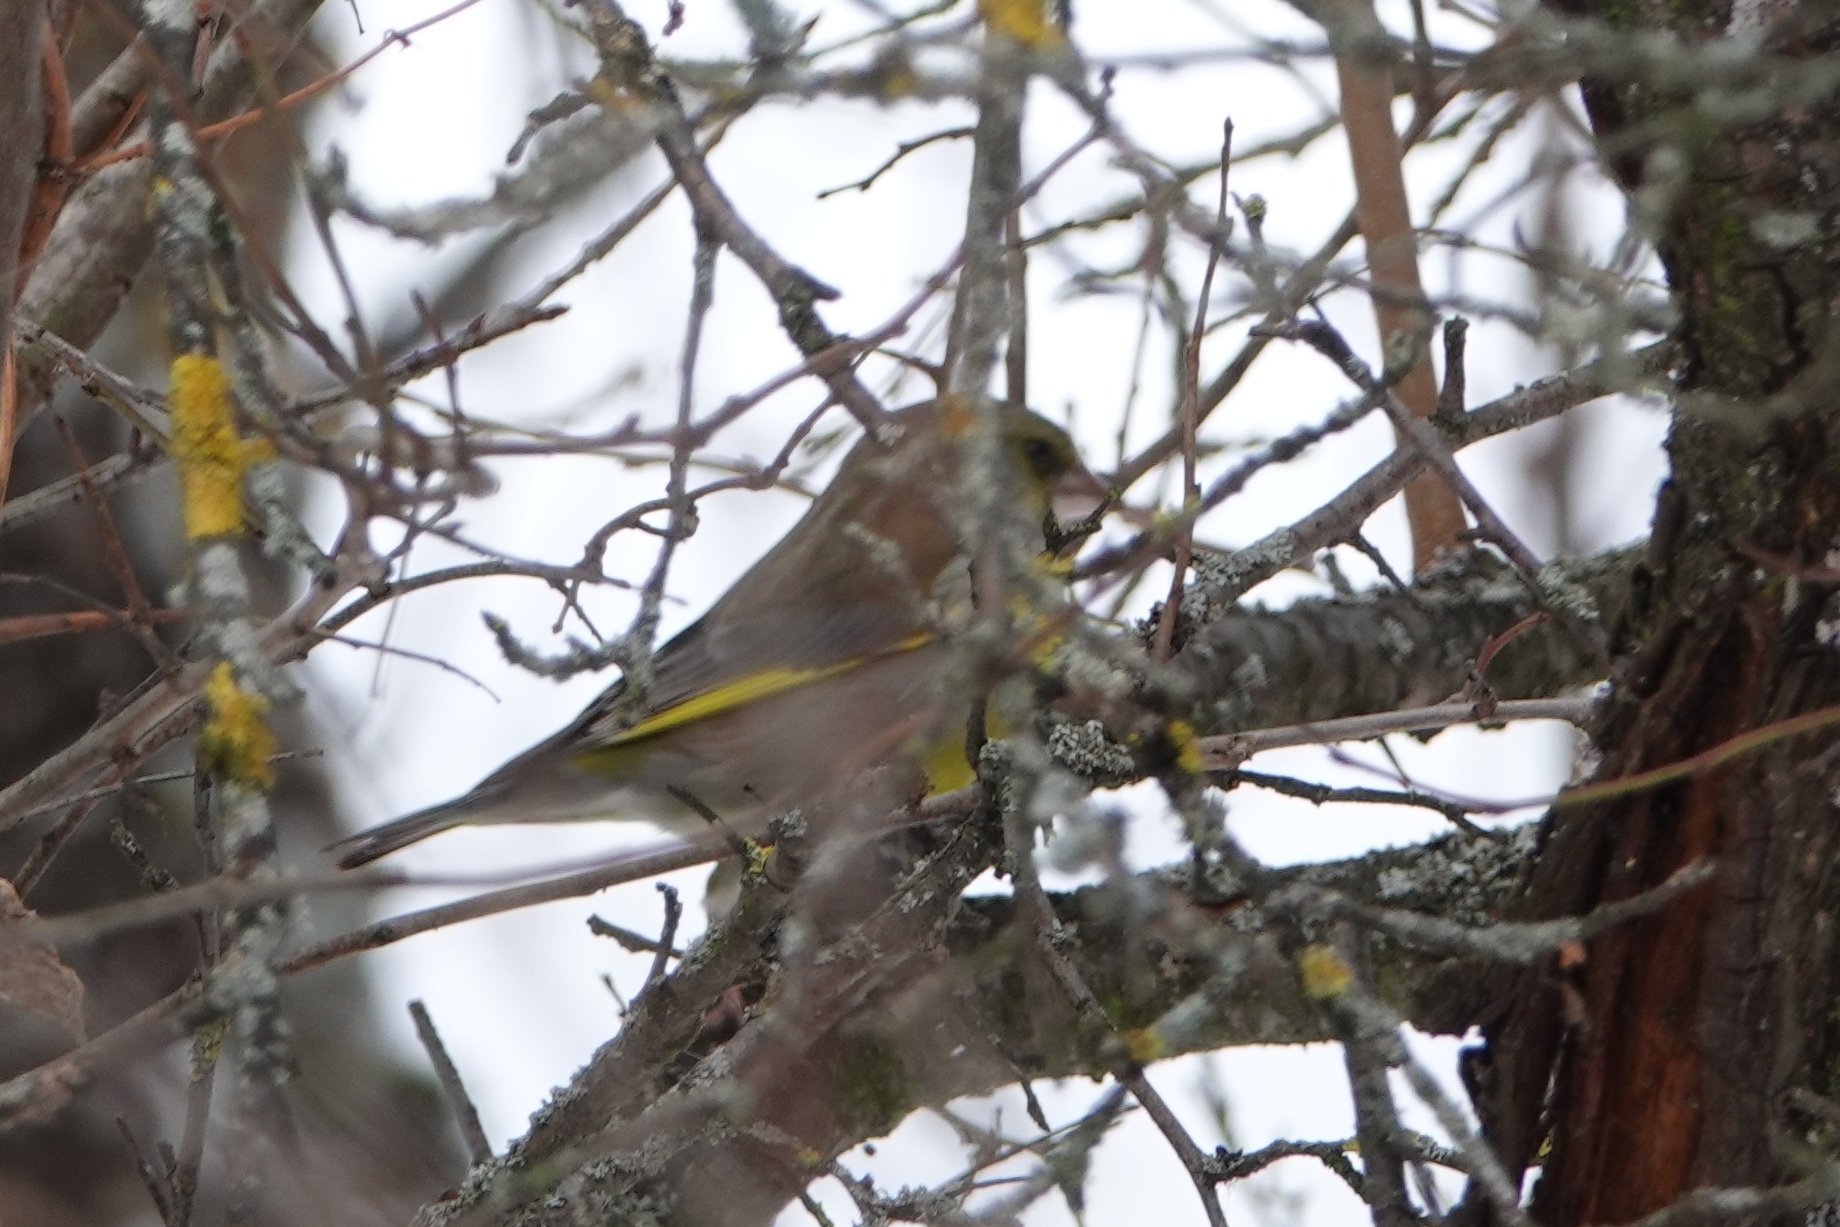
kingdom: Plantae
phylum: Tracheophyta
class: Liliopsida
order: Poales
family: Poaceae
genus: Chloris
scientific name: Chloris chloris
